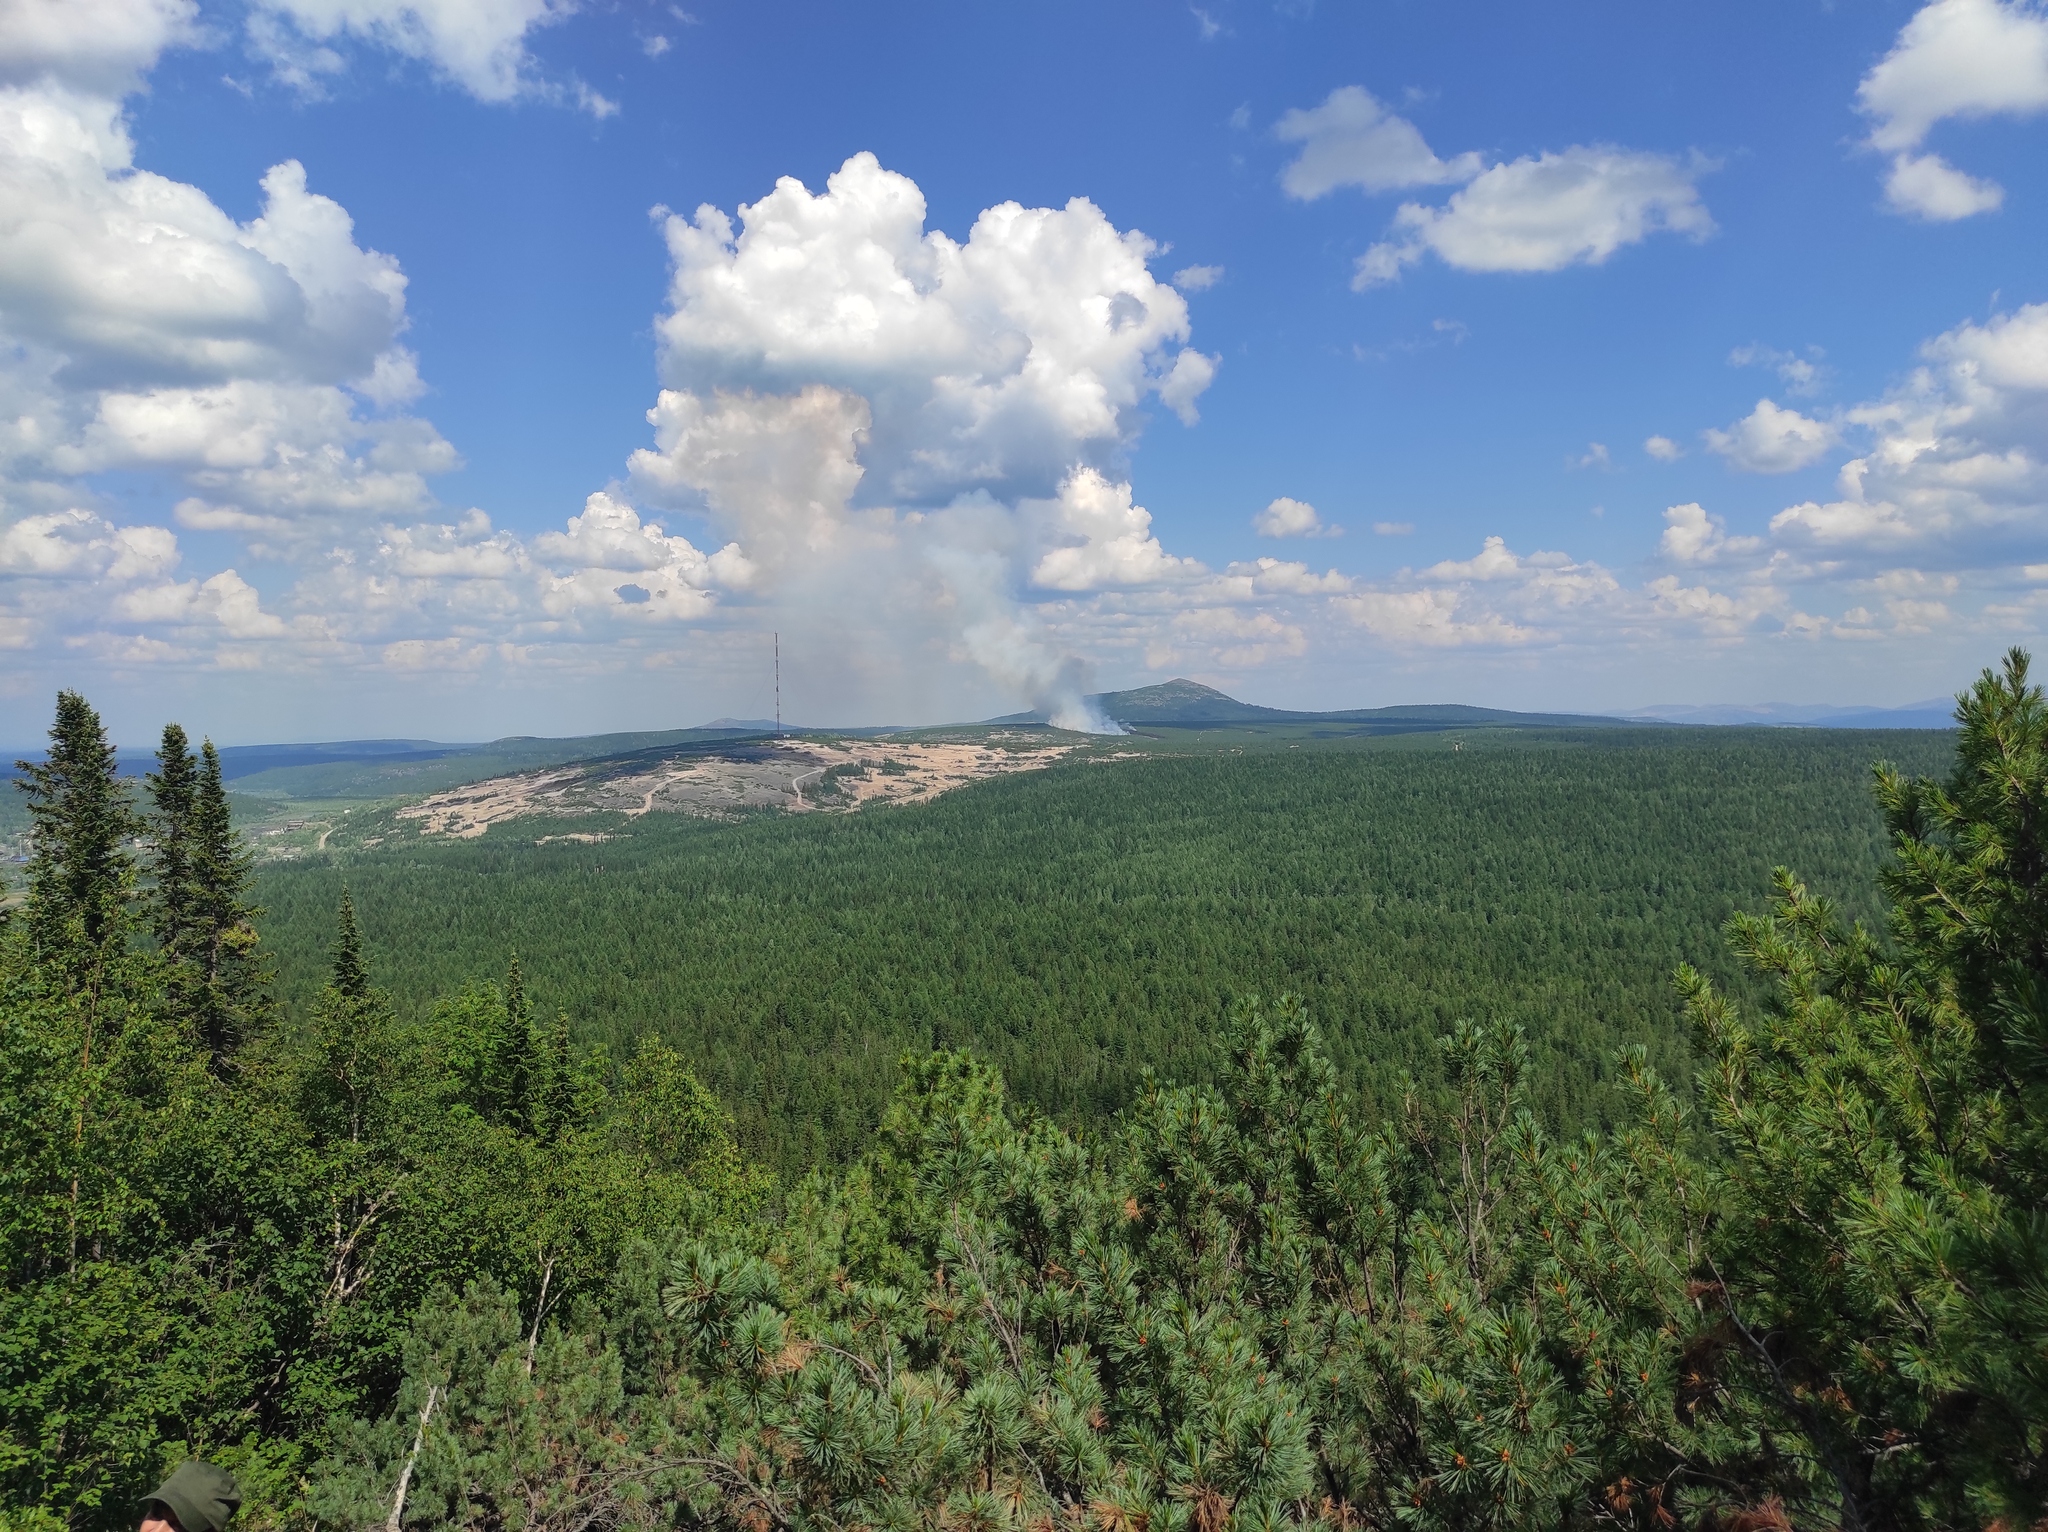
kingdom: Plantae
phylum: Tracheophyta
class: Pinopsida
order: Pinales
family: Pinaceae
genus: Pinus
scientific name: Pinus pumila
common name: Dwarf siberian pine
